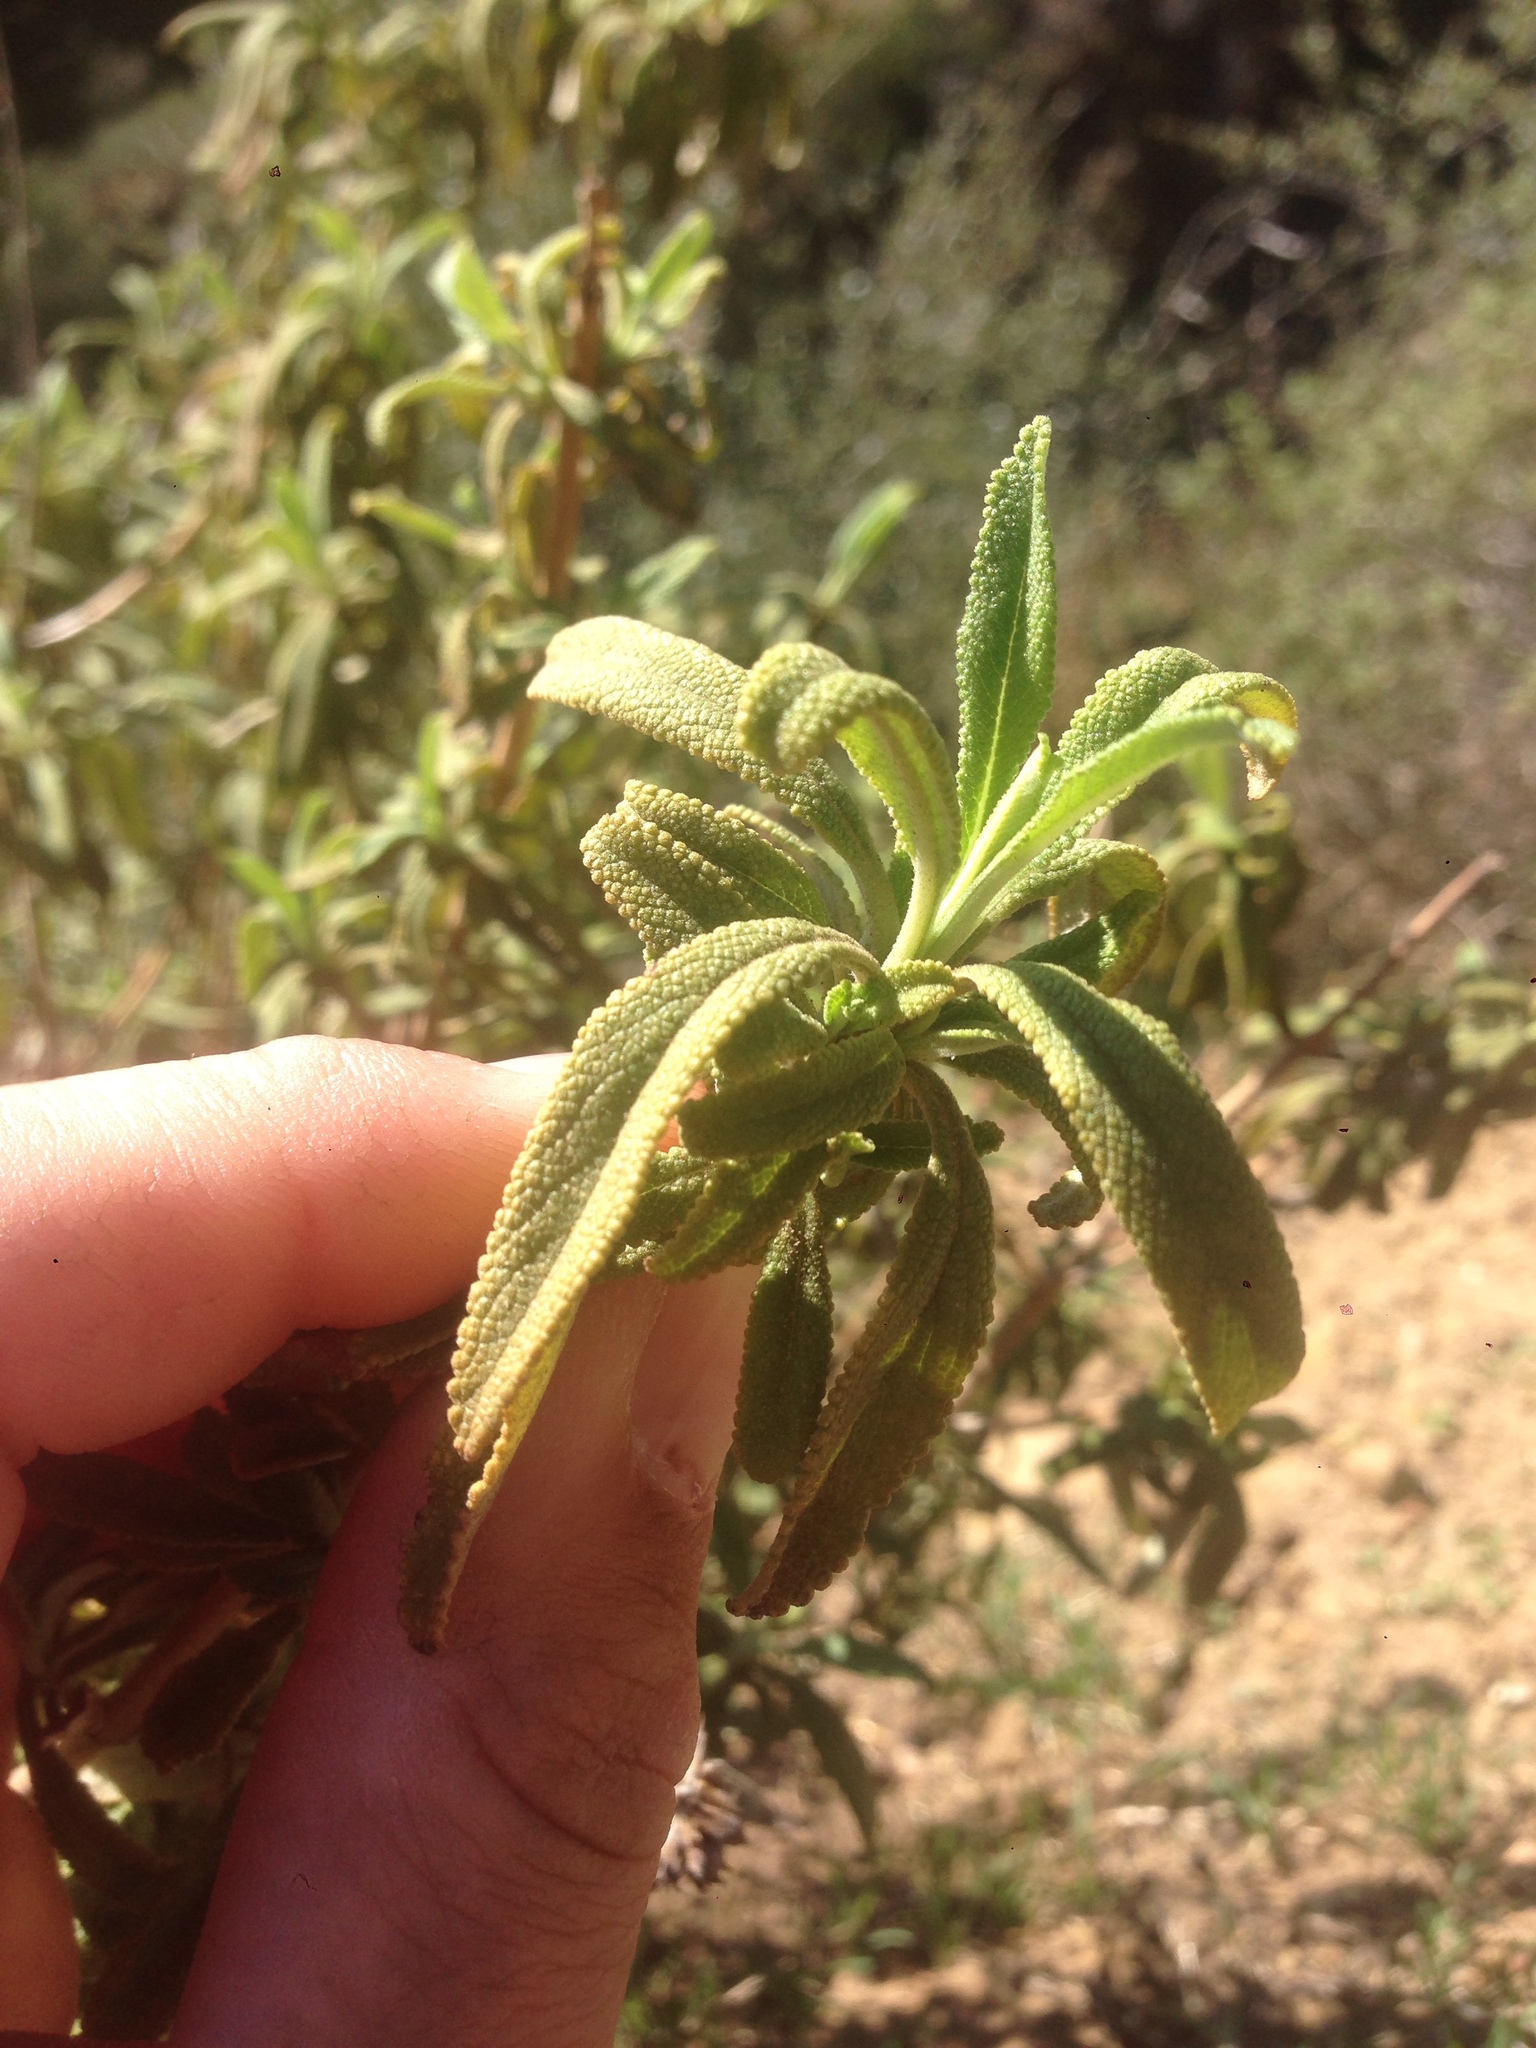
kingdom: Plantae
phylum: Tracheophyta
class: Magnoliopsida
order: Lamiales
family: Lamiaceae
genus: Salvia
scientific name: Salvia mellifera
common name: Black sage
